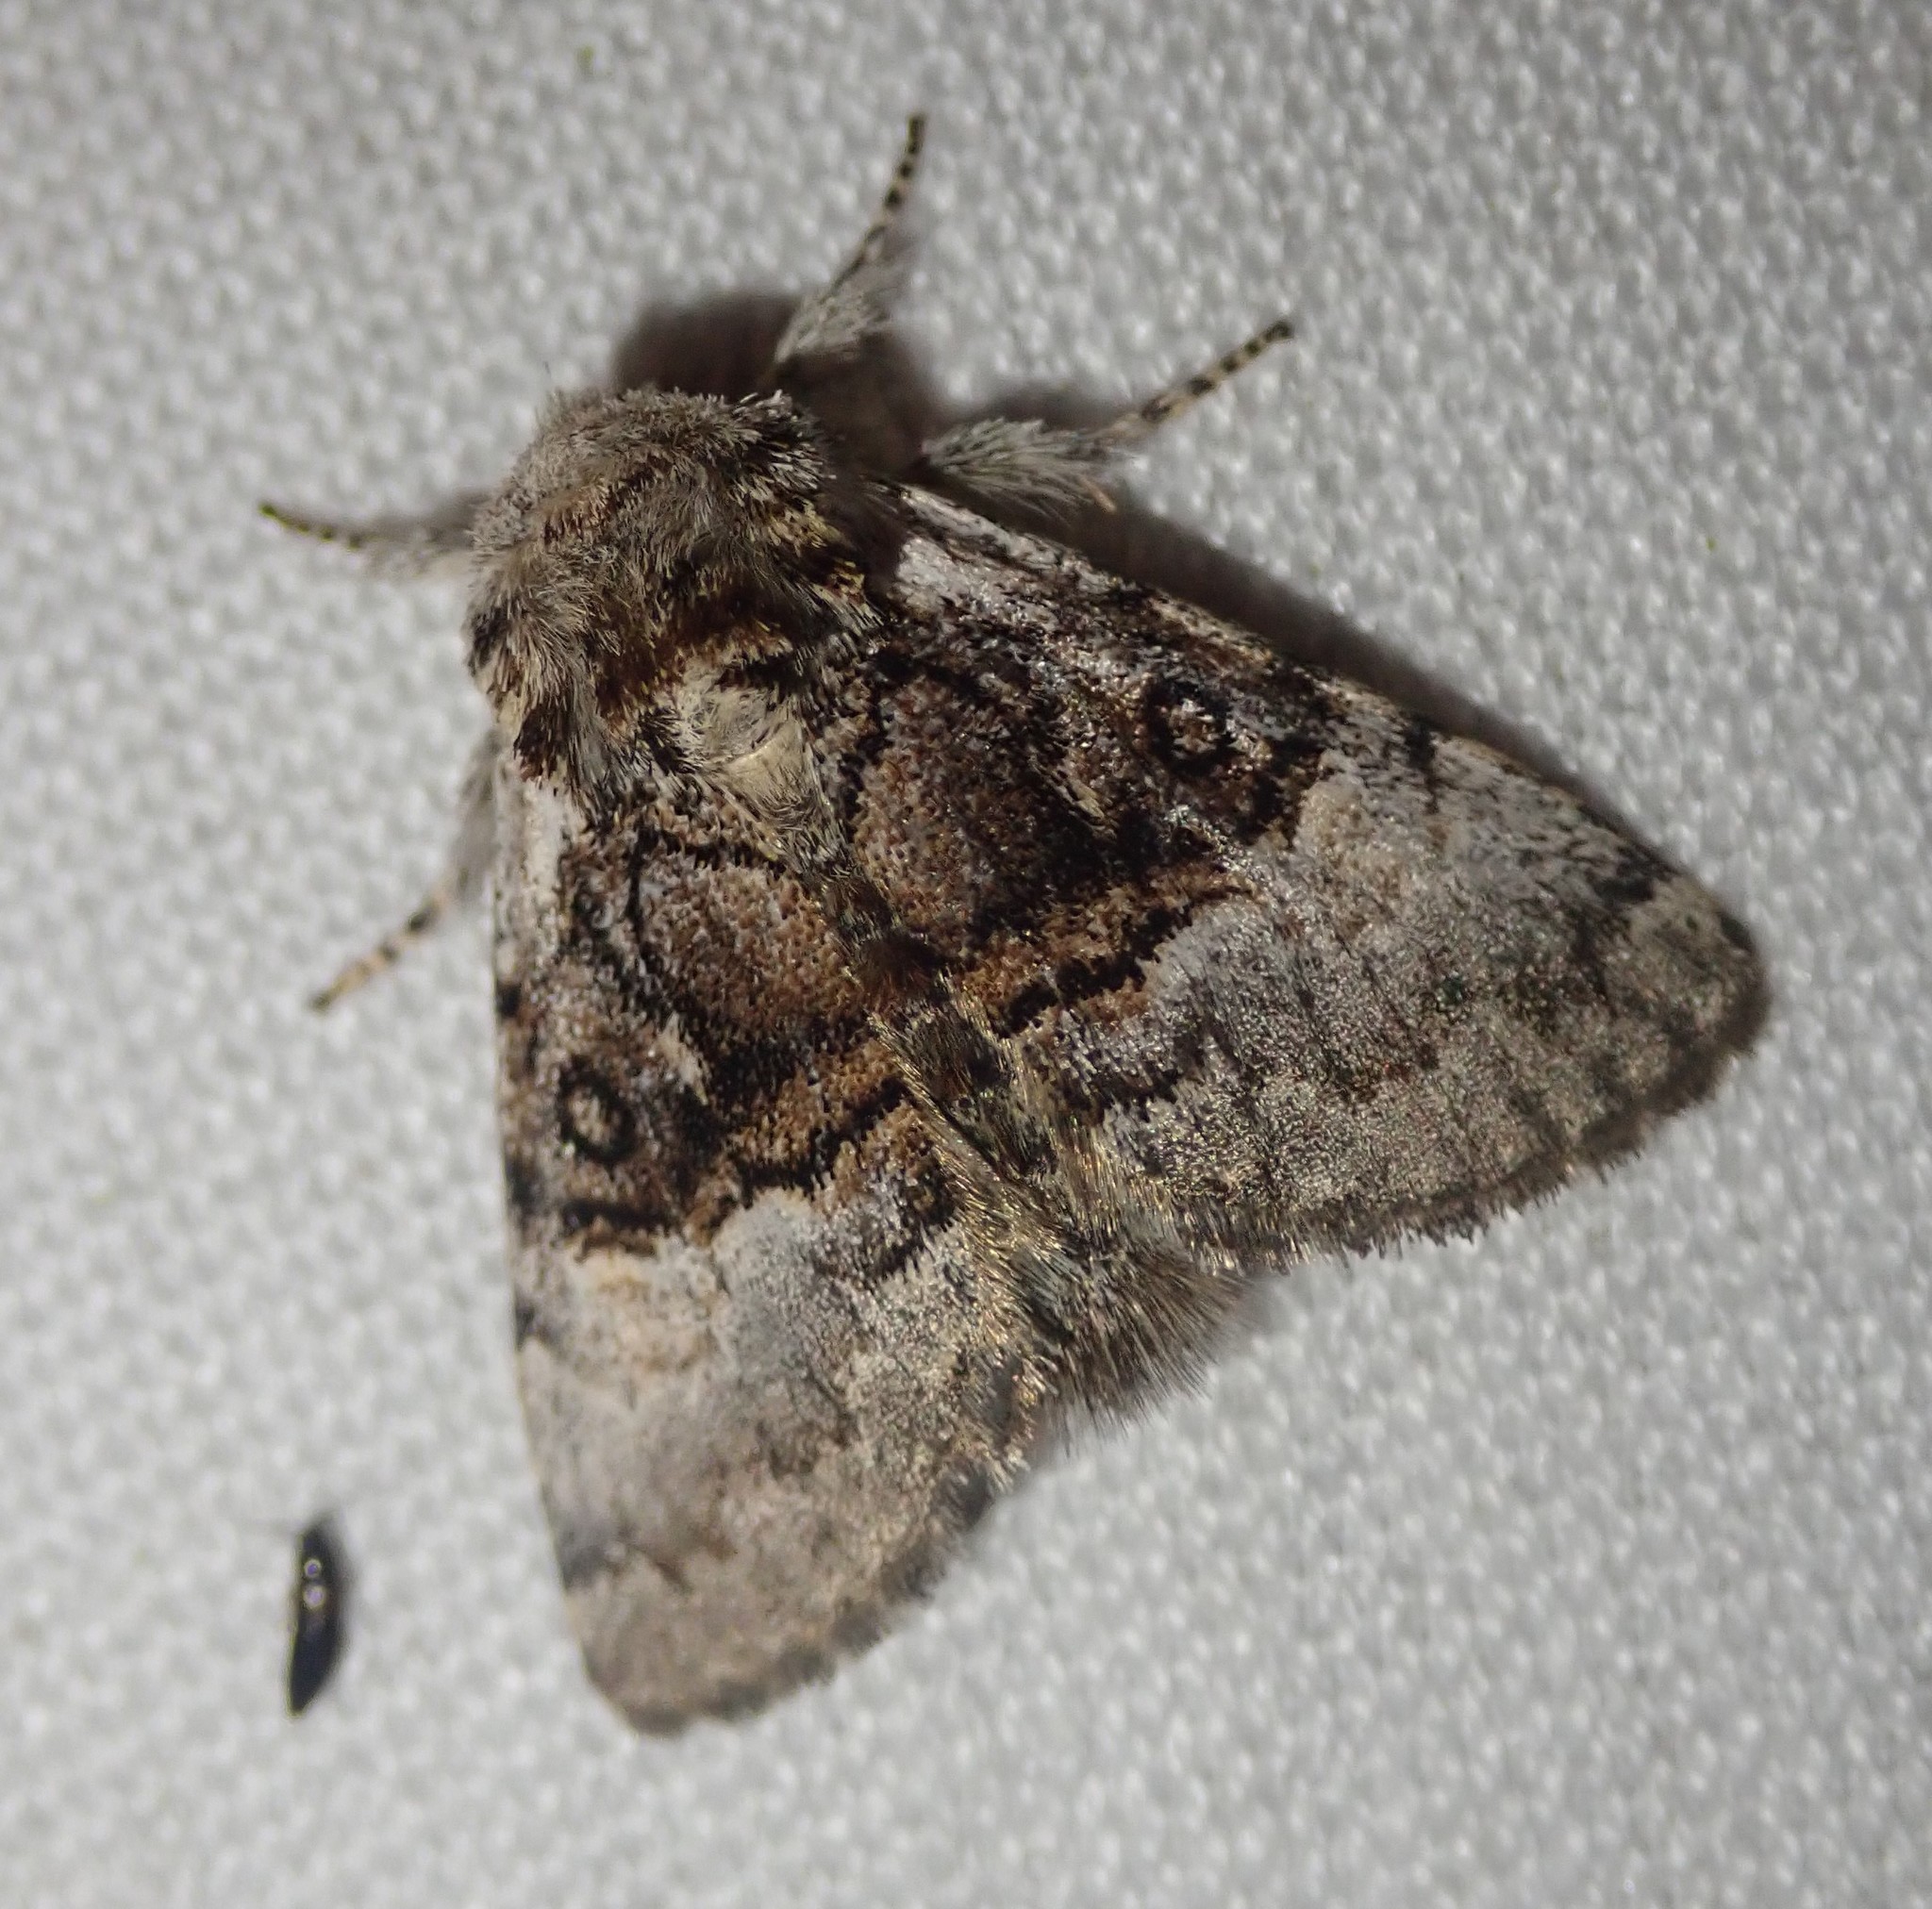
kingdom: Animalia
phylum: Arthropoda
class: Insecta
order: Lepidoptera
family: Noctuidae
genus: Colocasia
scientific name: Colocasia coryli
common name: Nut-tree tussock
